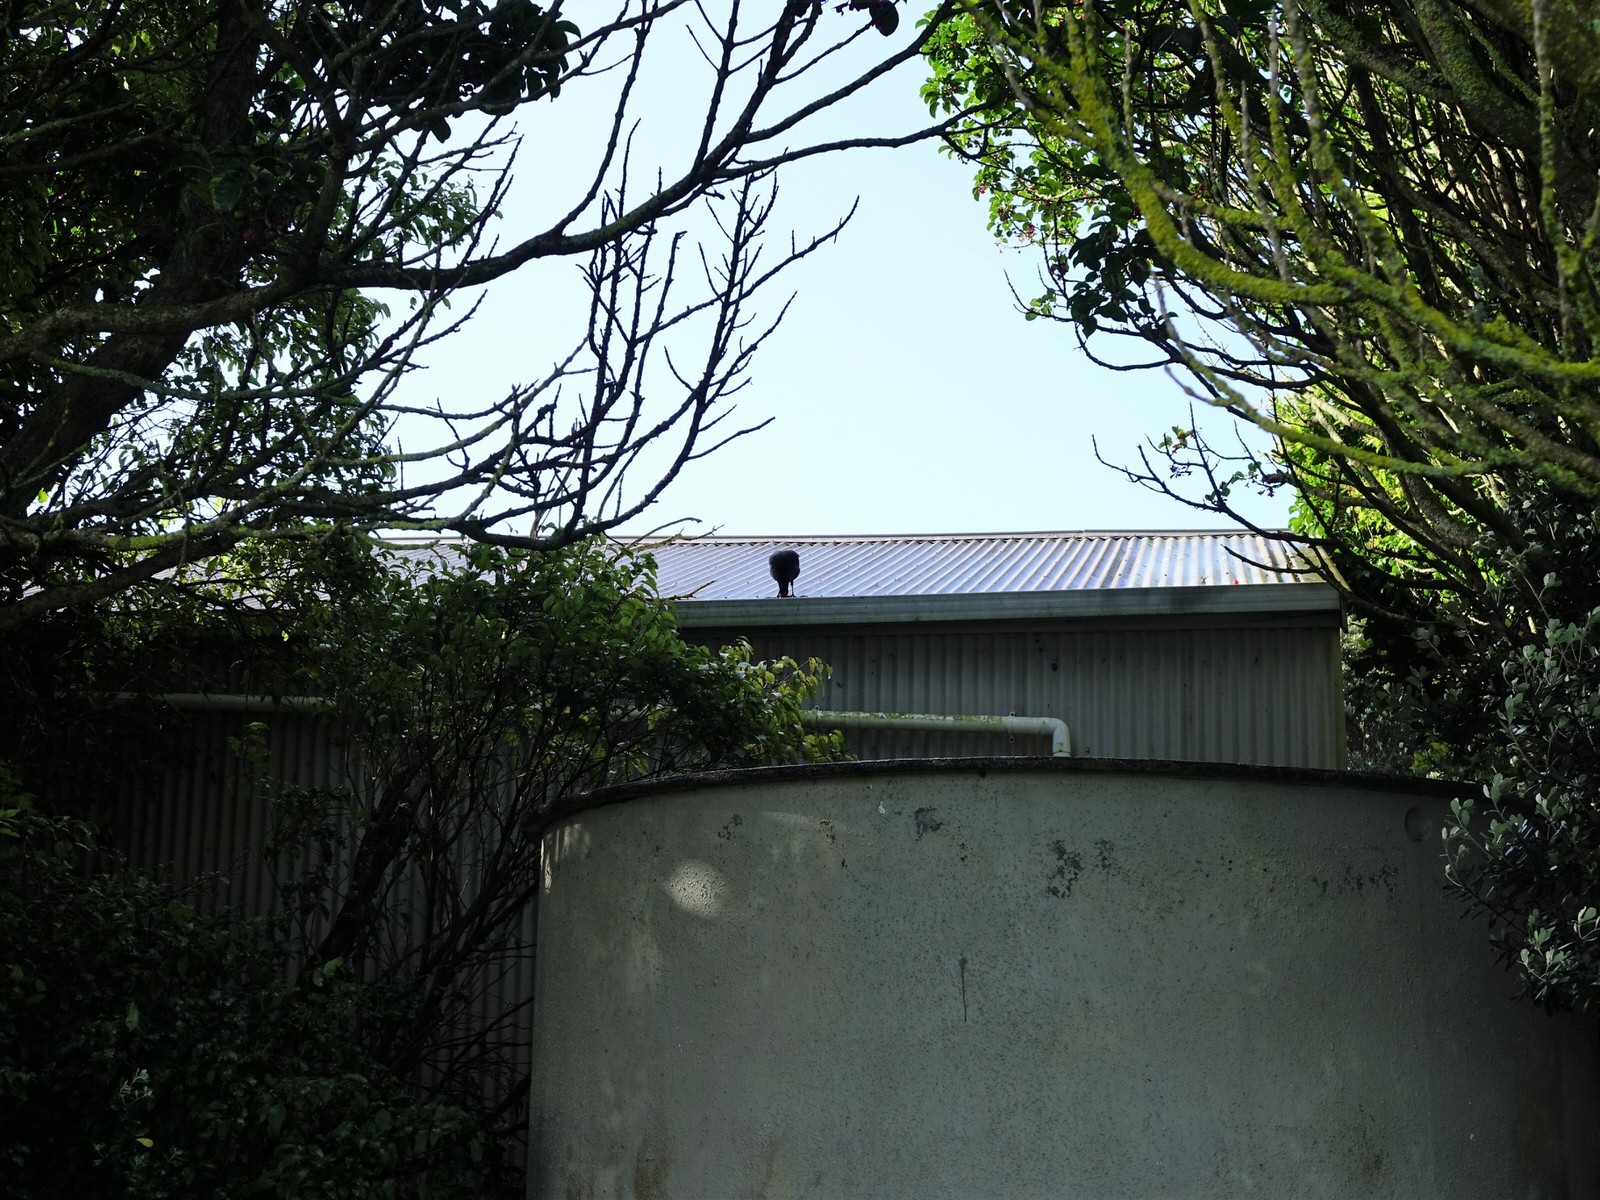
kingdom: Animalia
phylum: Chordata
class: Aves
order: Gruiformes
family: Rallidae
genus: Porphyrio
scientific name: Porphyrio melanotus
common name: Australasian swamphen
